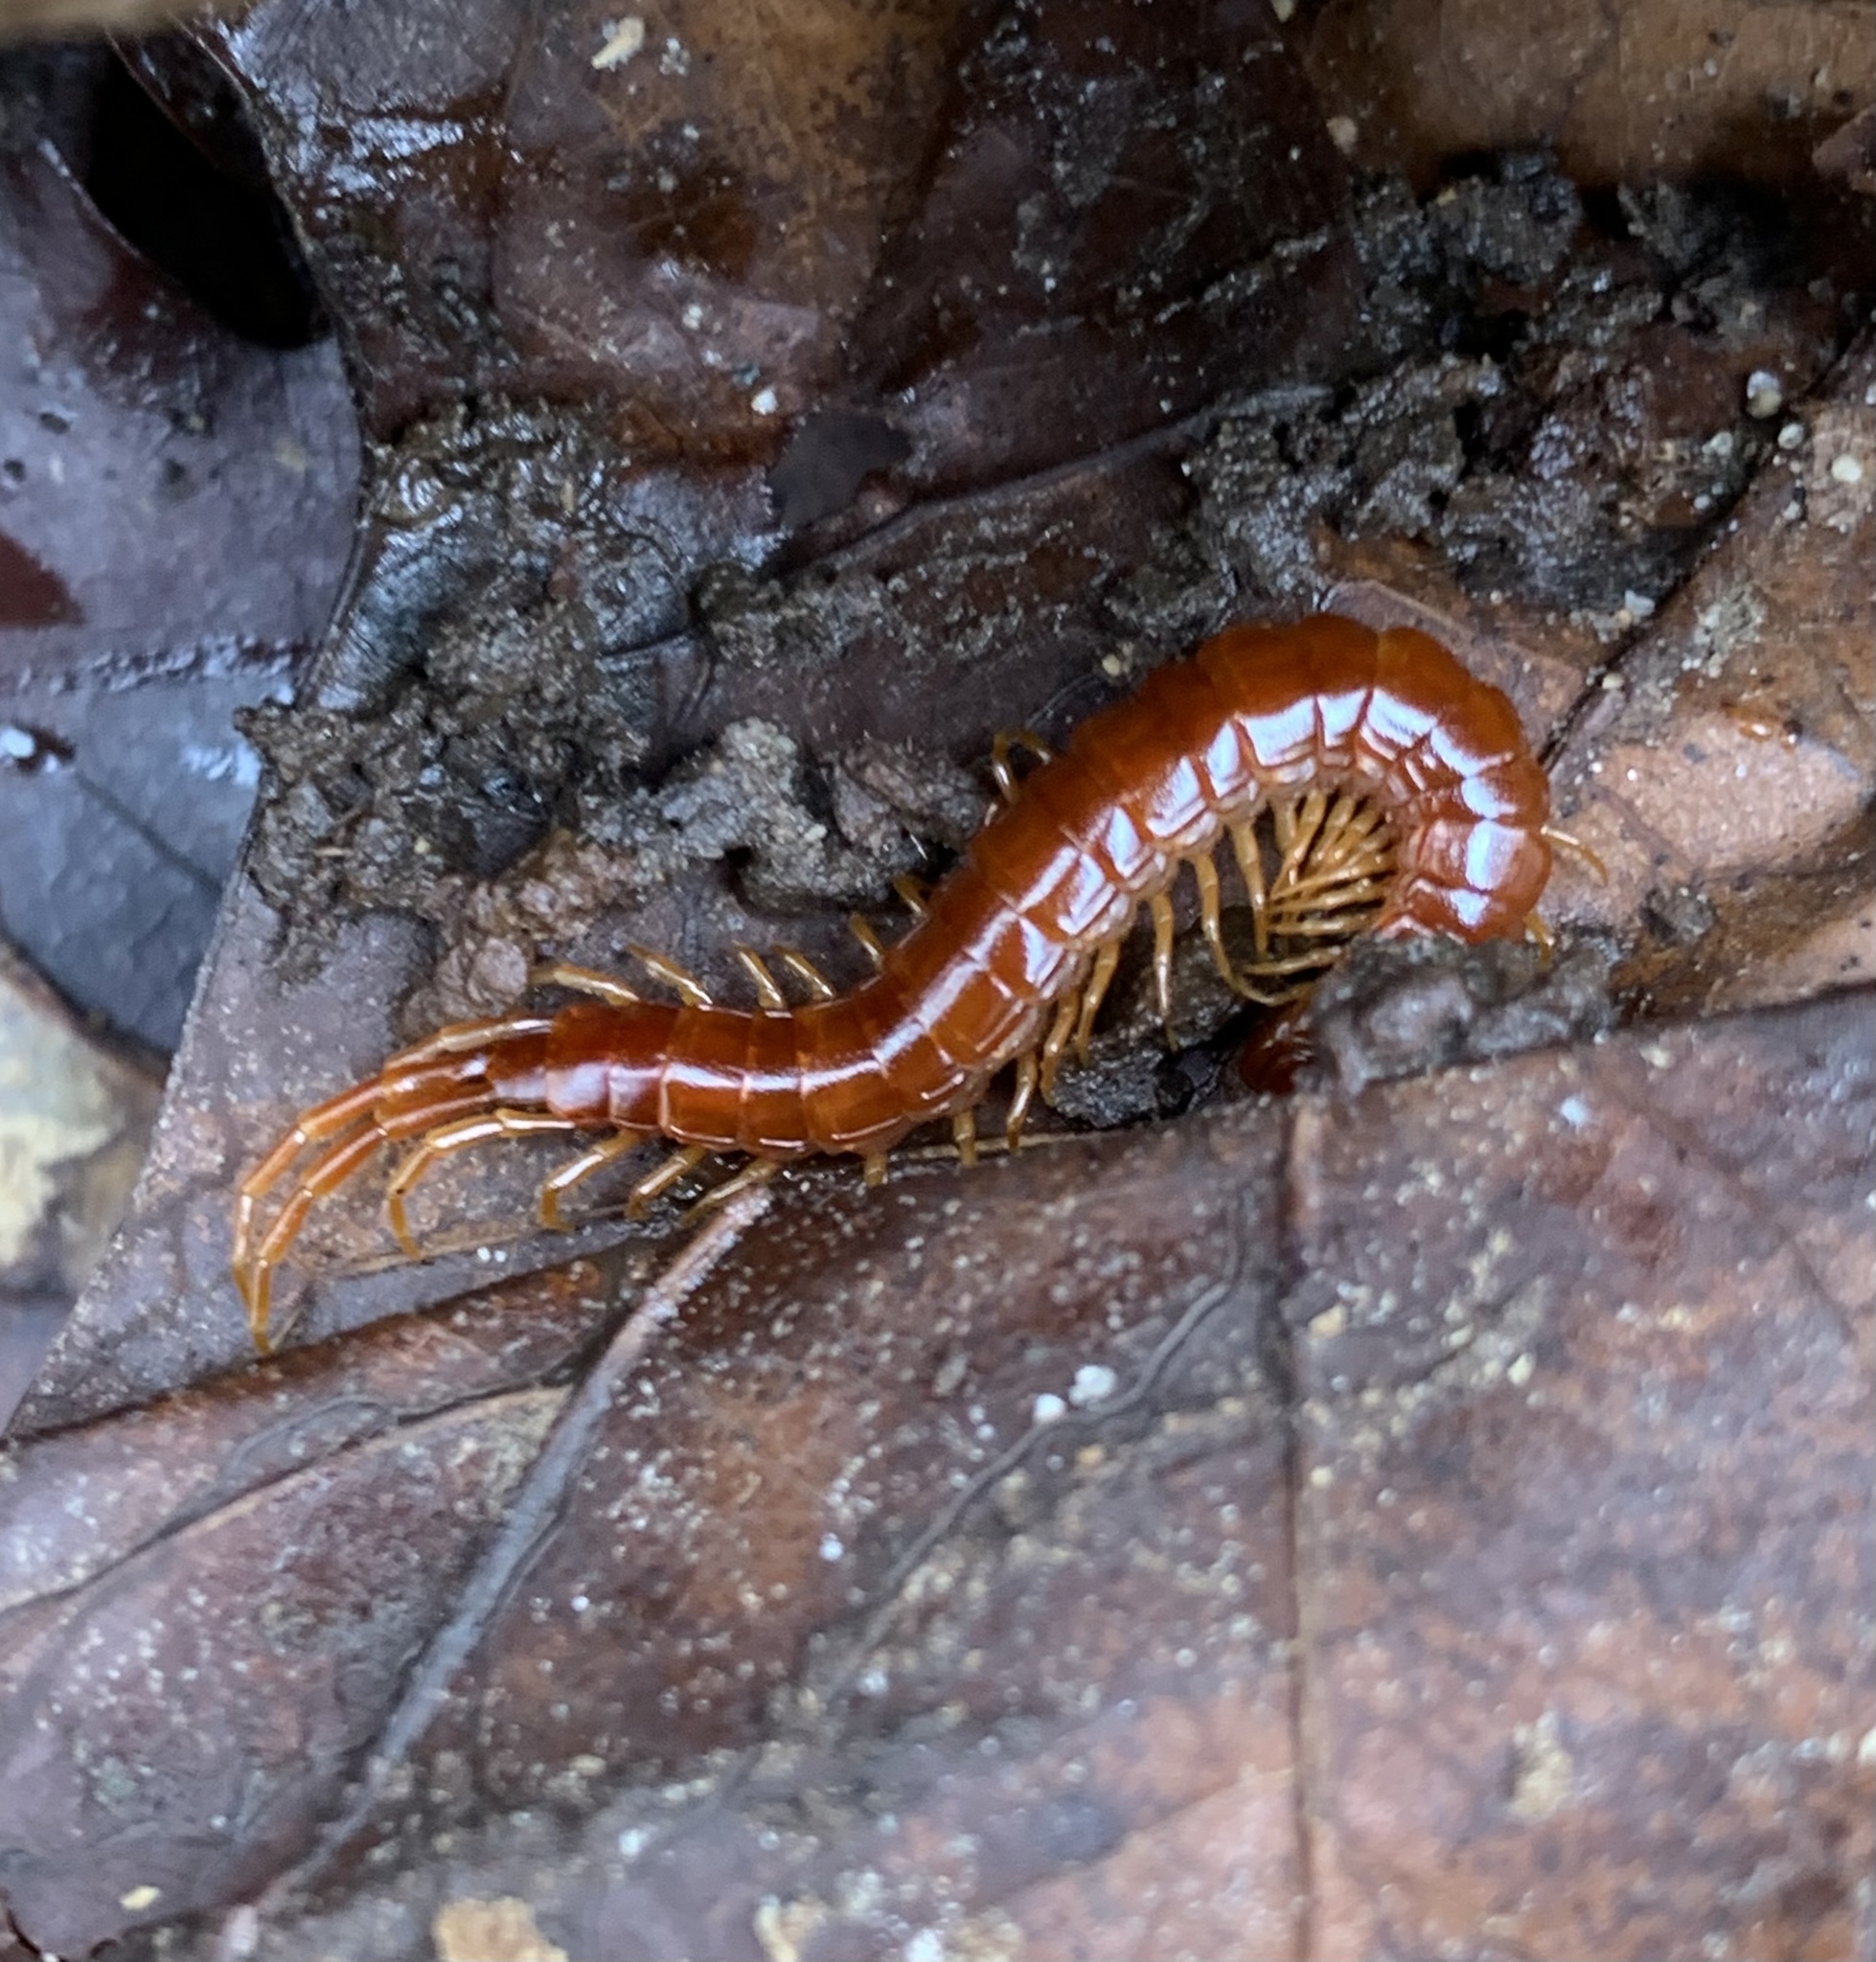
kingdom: Animalia
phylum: Arthropoda
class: Chilopoda
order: Scolopendromorpha
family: Scolopocryptopidae
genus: Scolopocryptops
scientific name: Scolopocryptops sexspinosus
